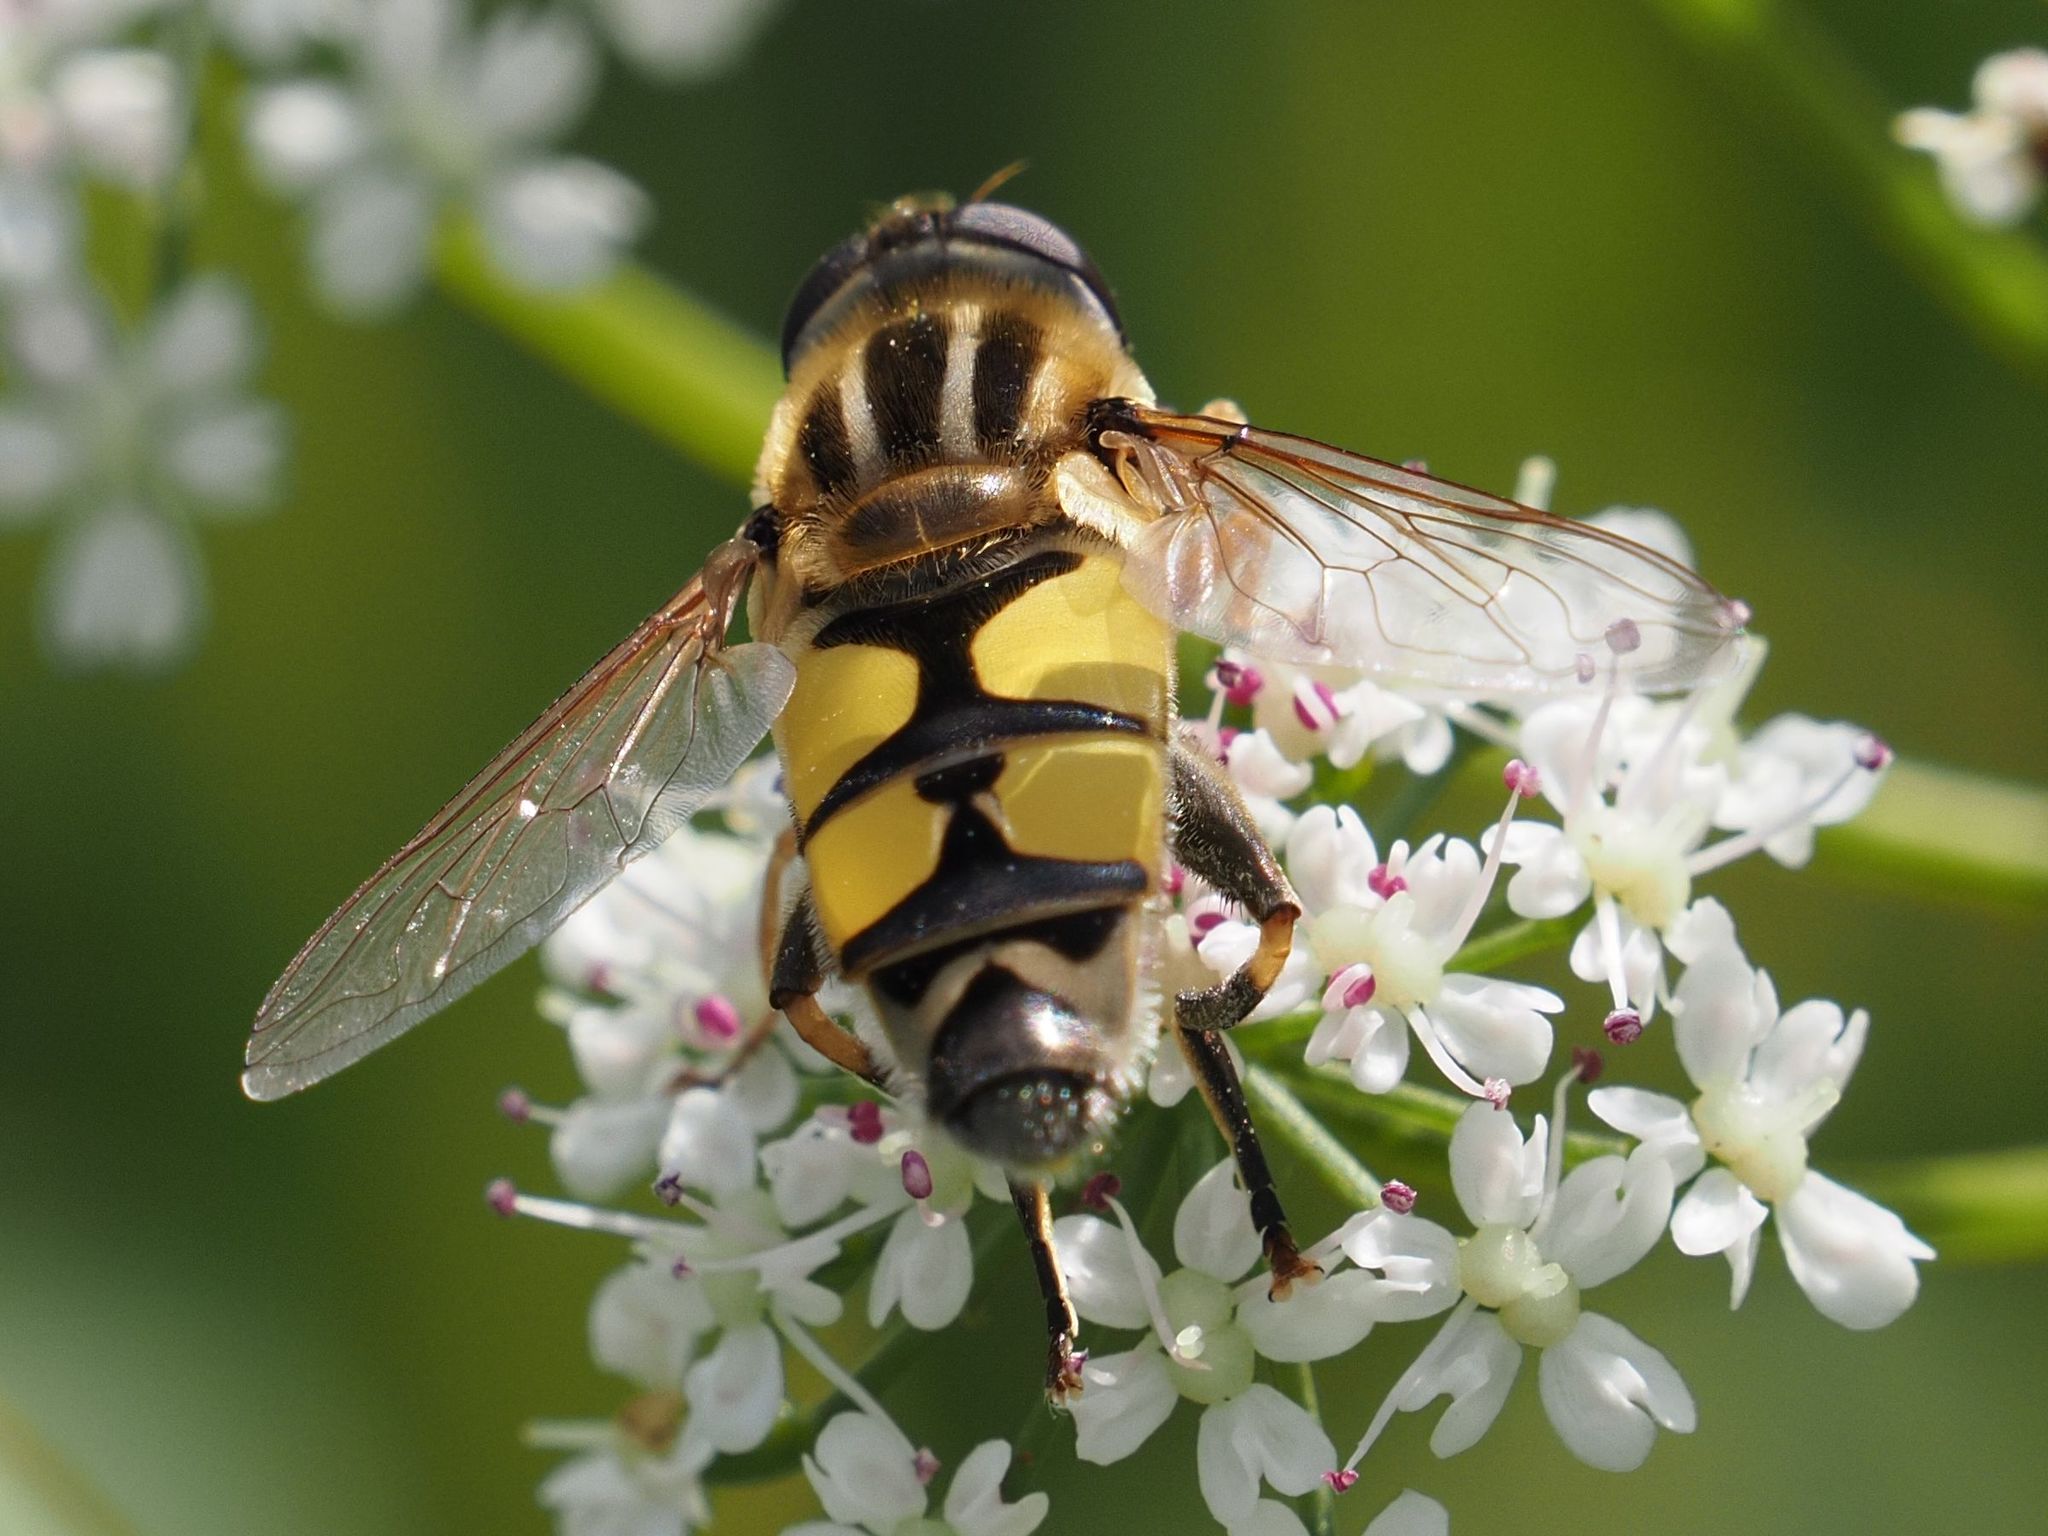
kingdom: Animalia
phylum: Arthropoda
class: Insecta
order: Diptera
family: Syrphidae
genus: Helophilus
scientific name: Helophilus trivittatus
